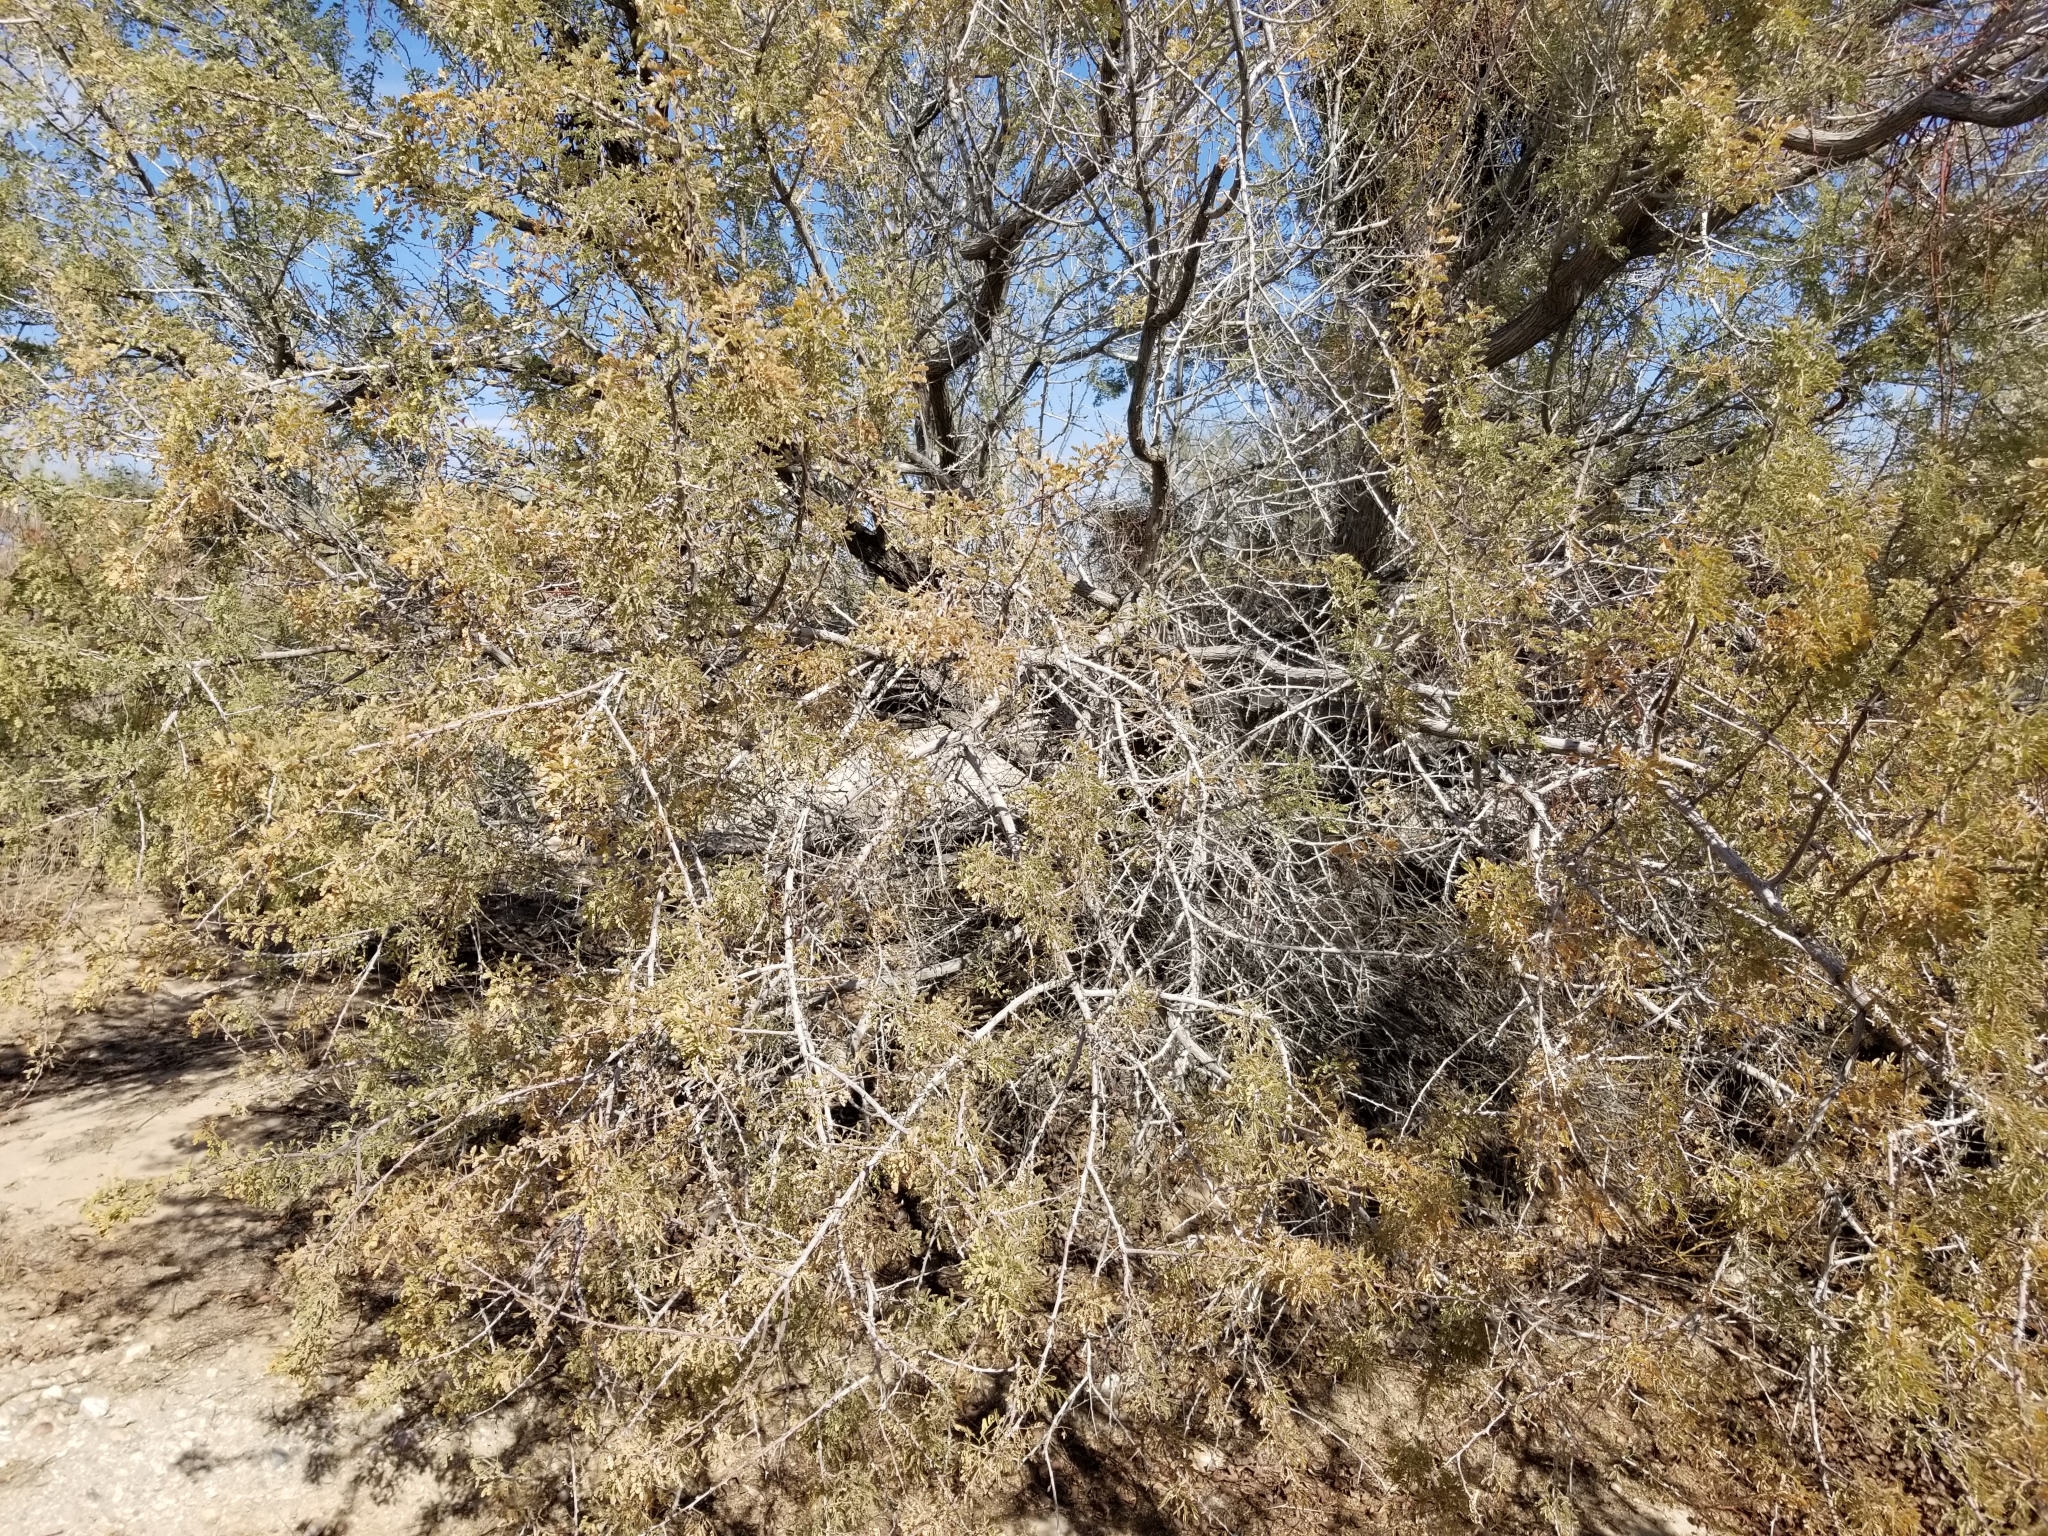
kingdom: Plantae
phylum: Tracheophyta
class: Magnoliopsida
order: Fabales
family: Fabaceae
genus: Senegalia
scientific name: Senegalia greggii
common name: Texas-mimosa
